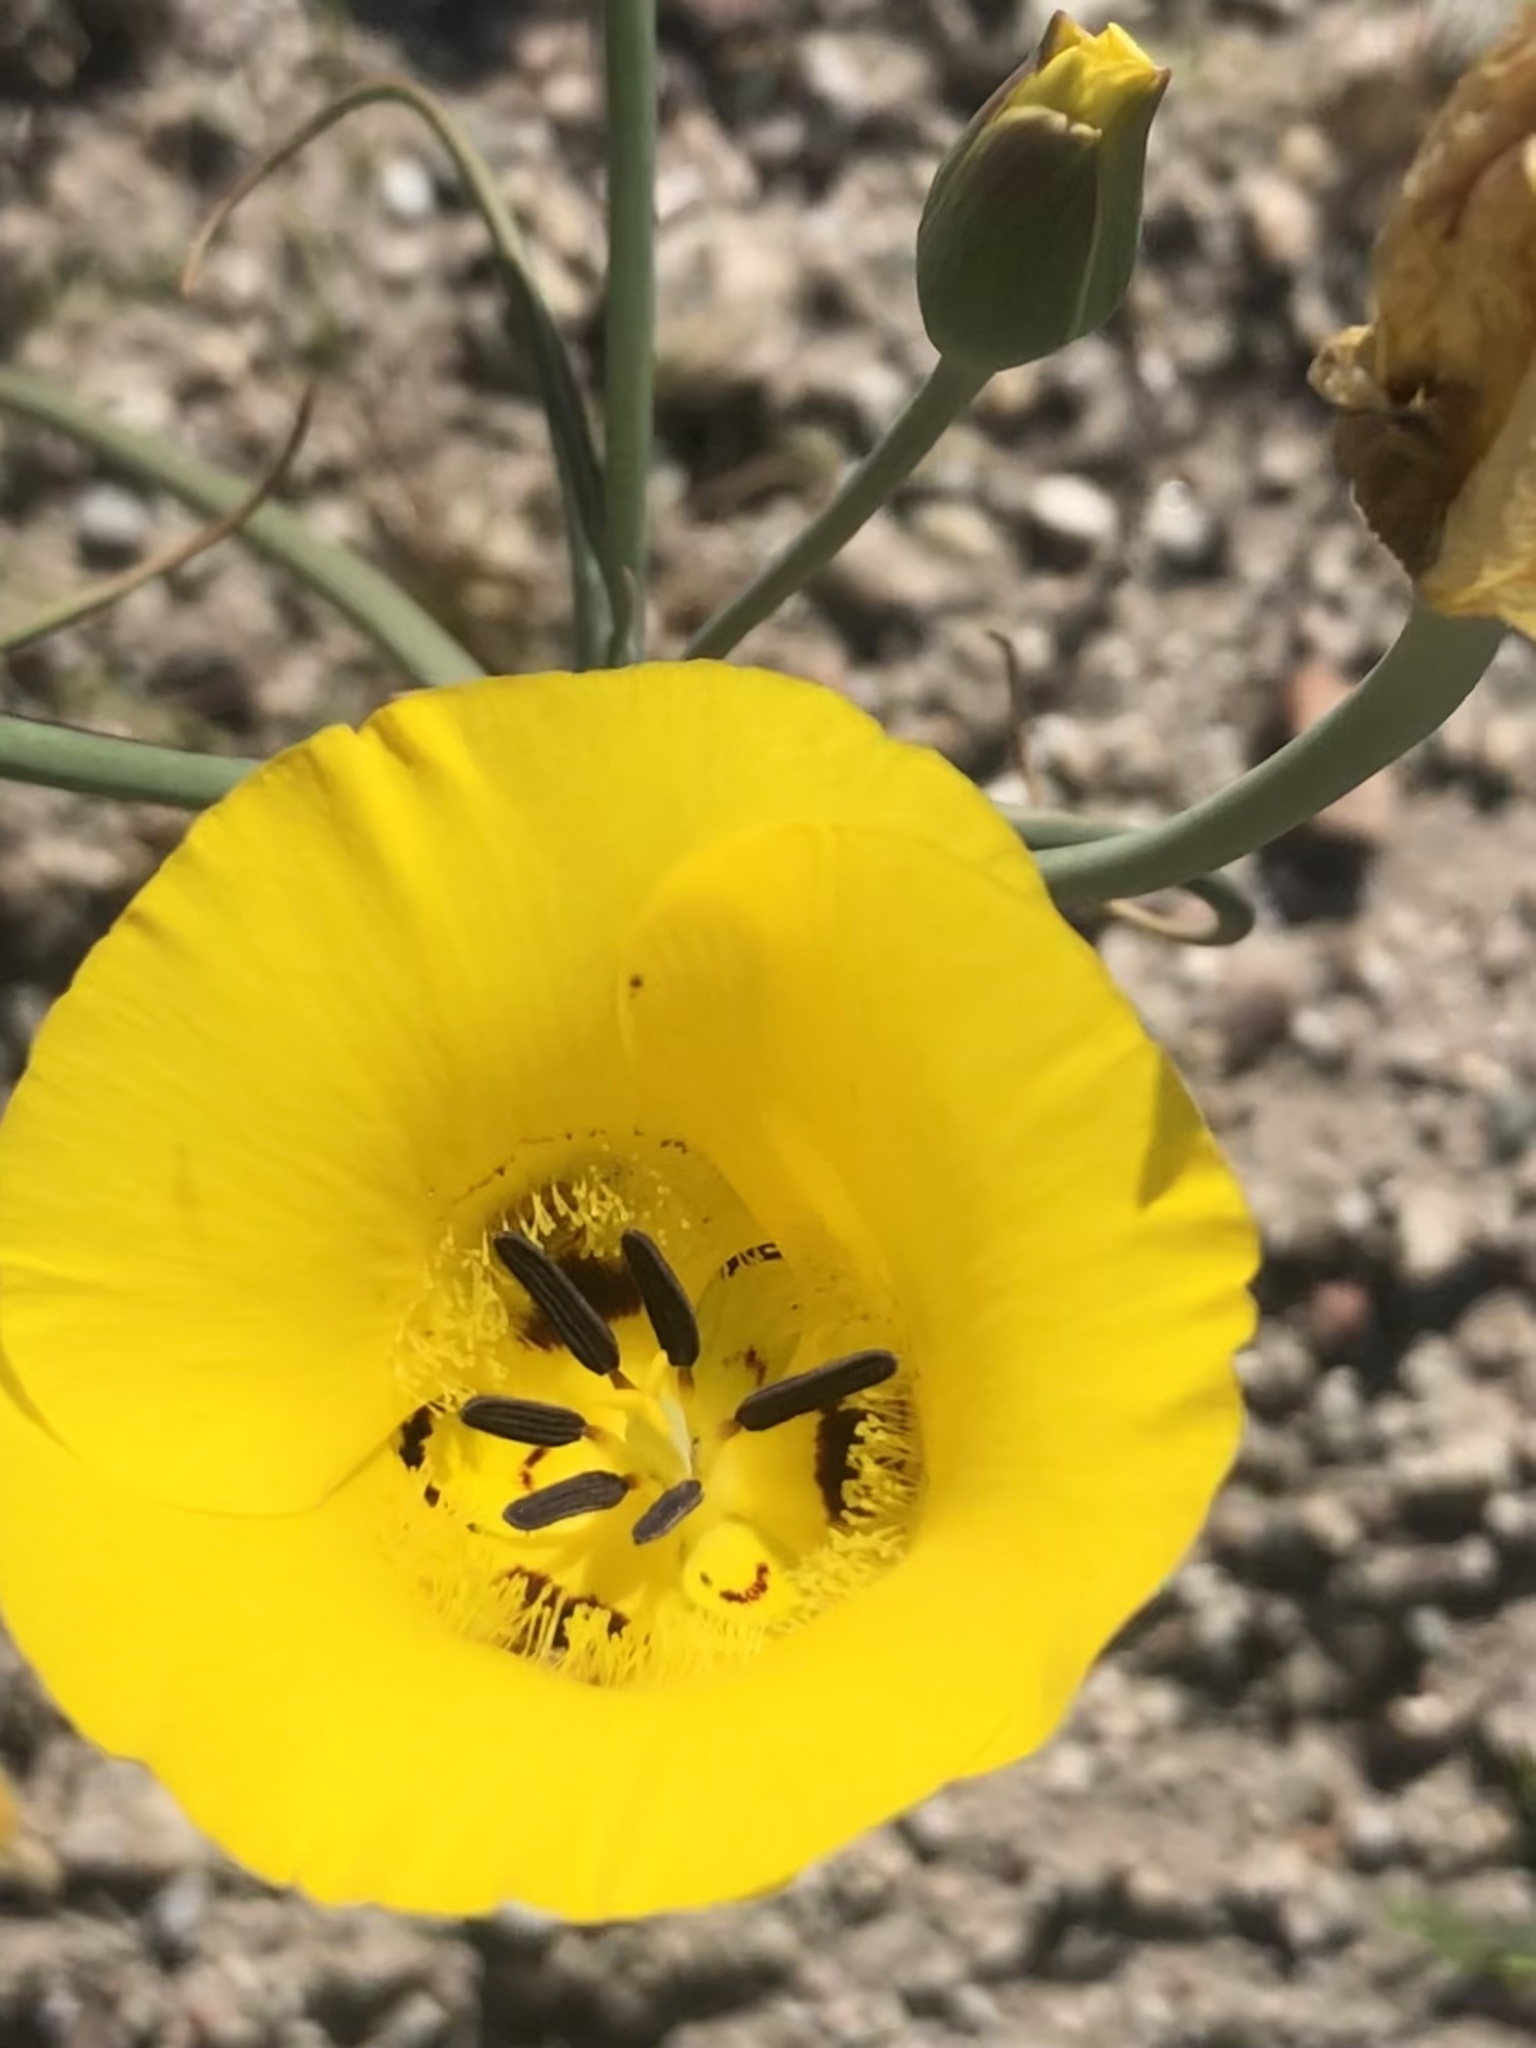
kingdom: Plantae
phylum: Tracheophyta
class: Liliopsida
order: Liliales
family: Liliaceae
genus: Calochortus
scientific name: Calochortus clavatus
